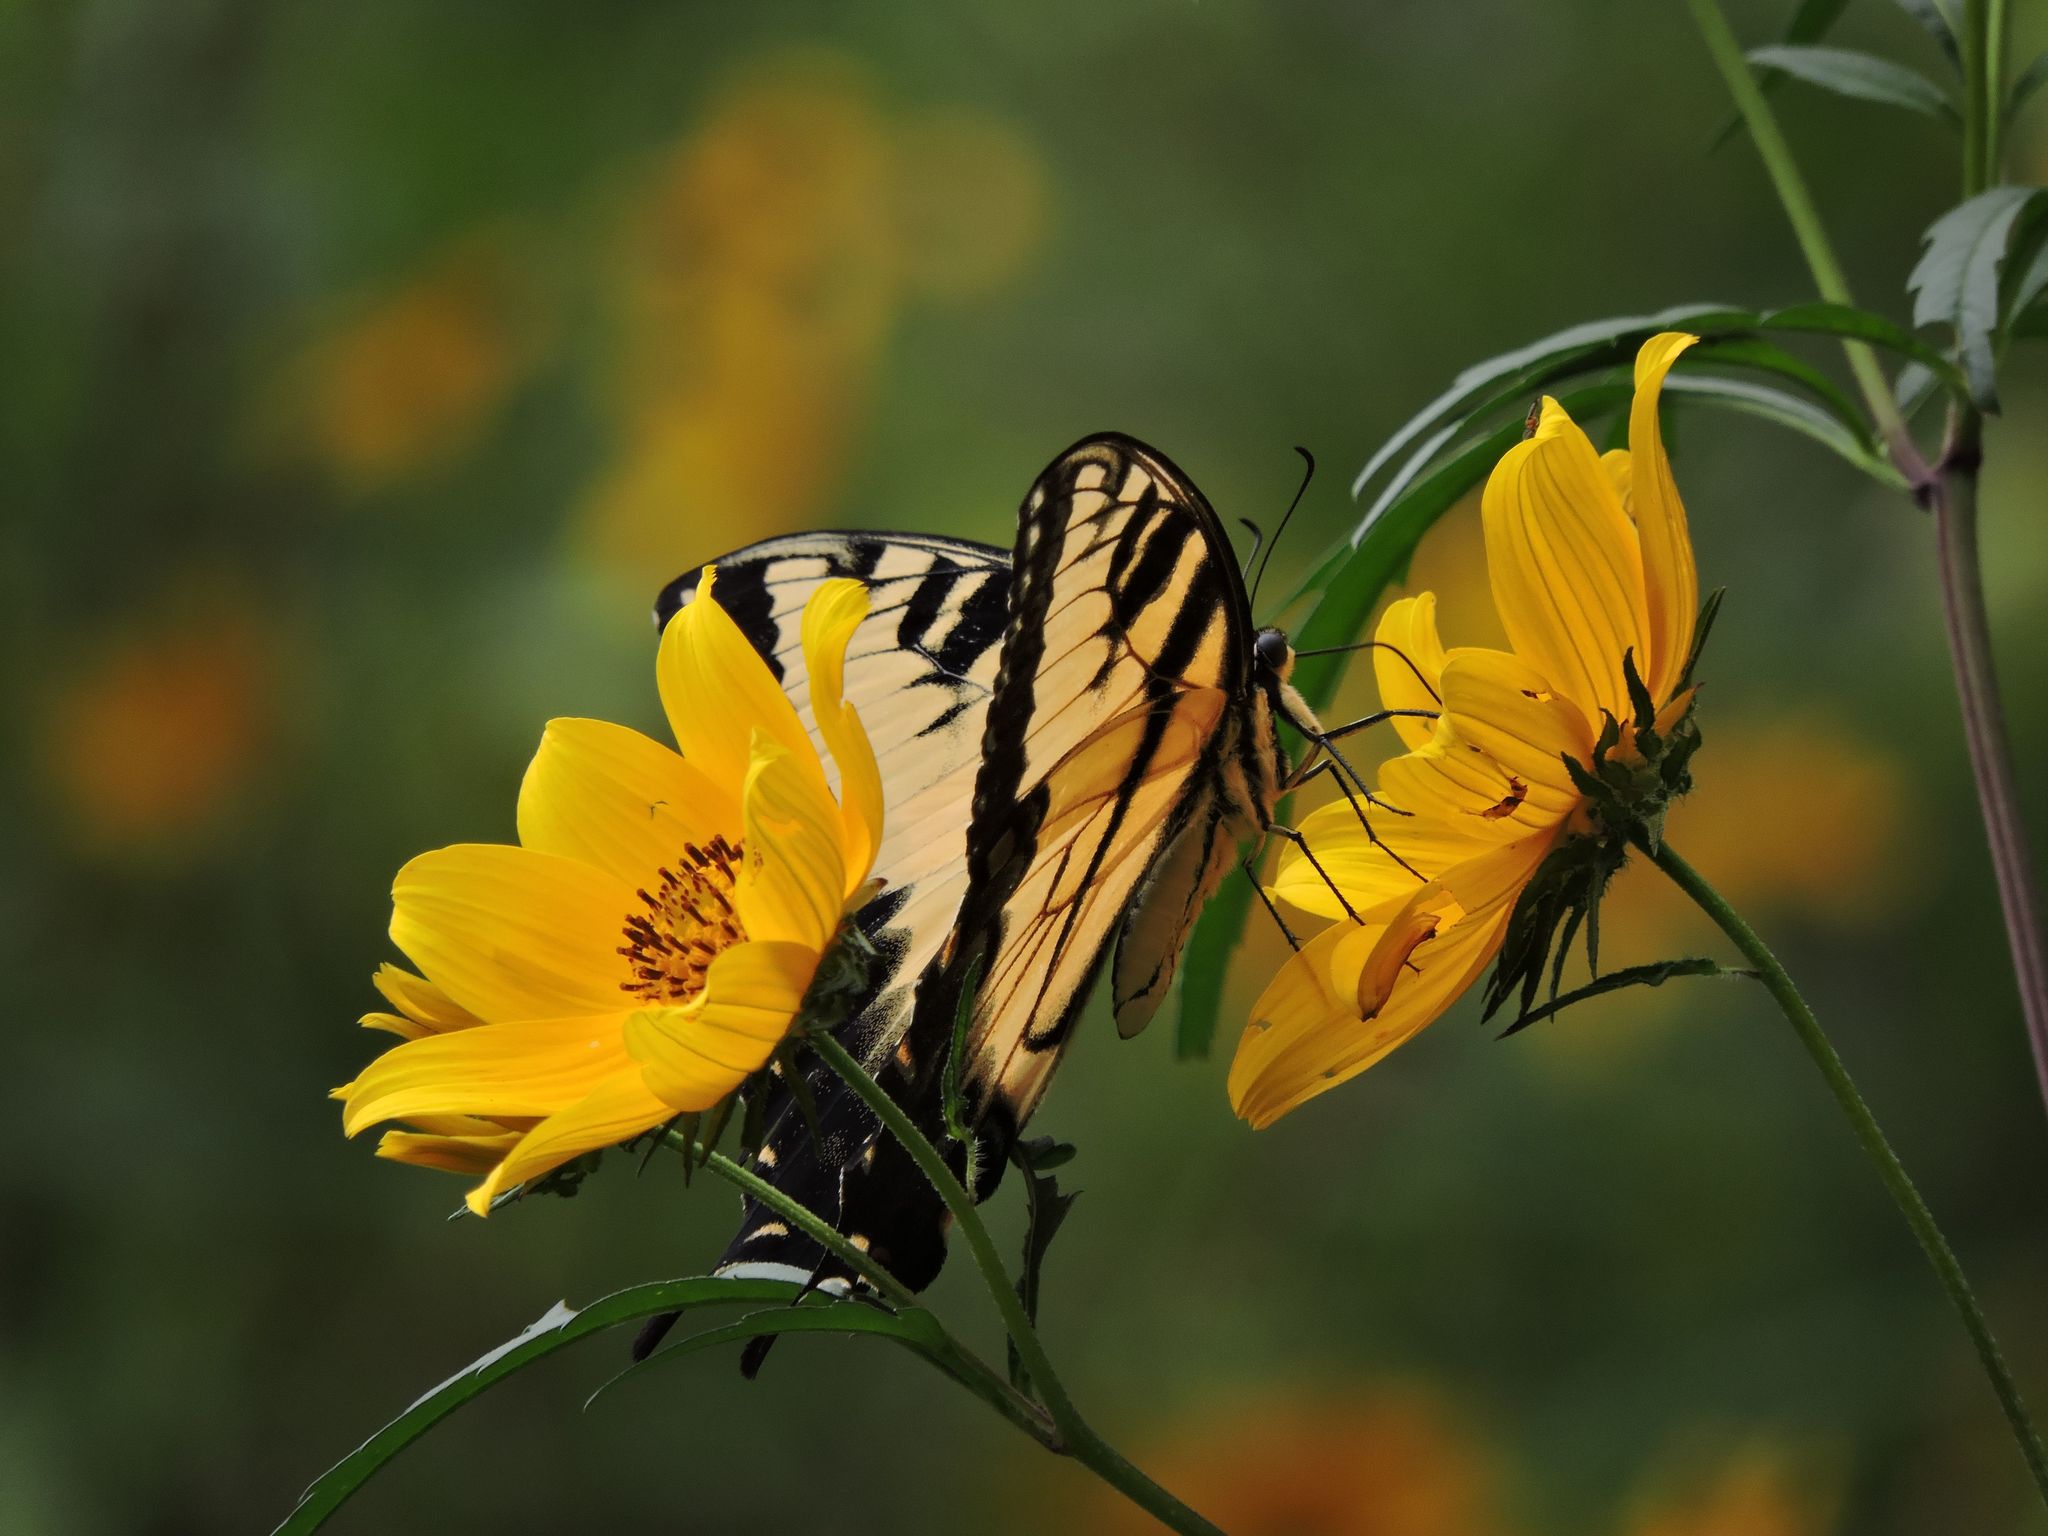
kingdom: Animalia
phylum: Arthropoda
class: Insecta
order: Lepidoptera
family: Papilionidae
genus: Papilio
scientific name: Papilio glaucus
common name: Tiger swallowtail
